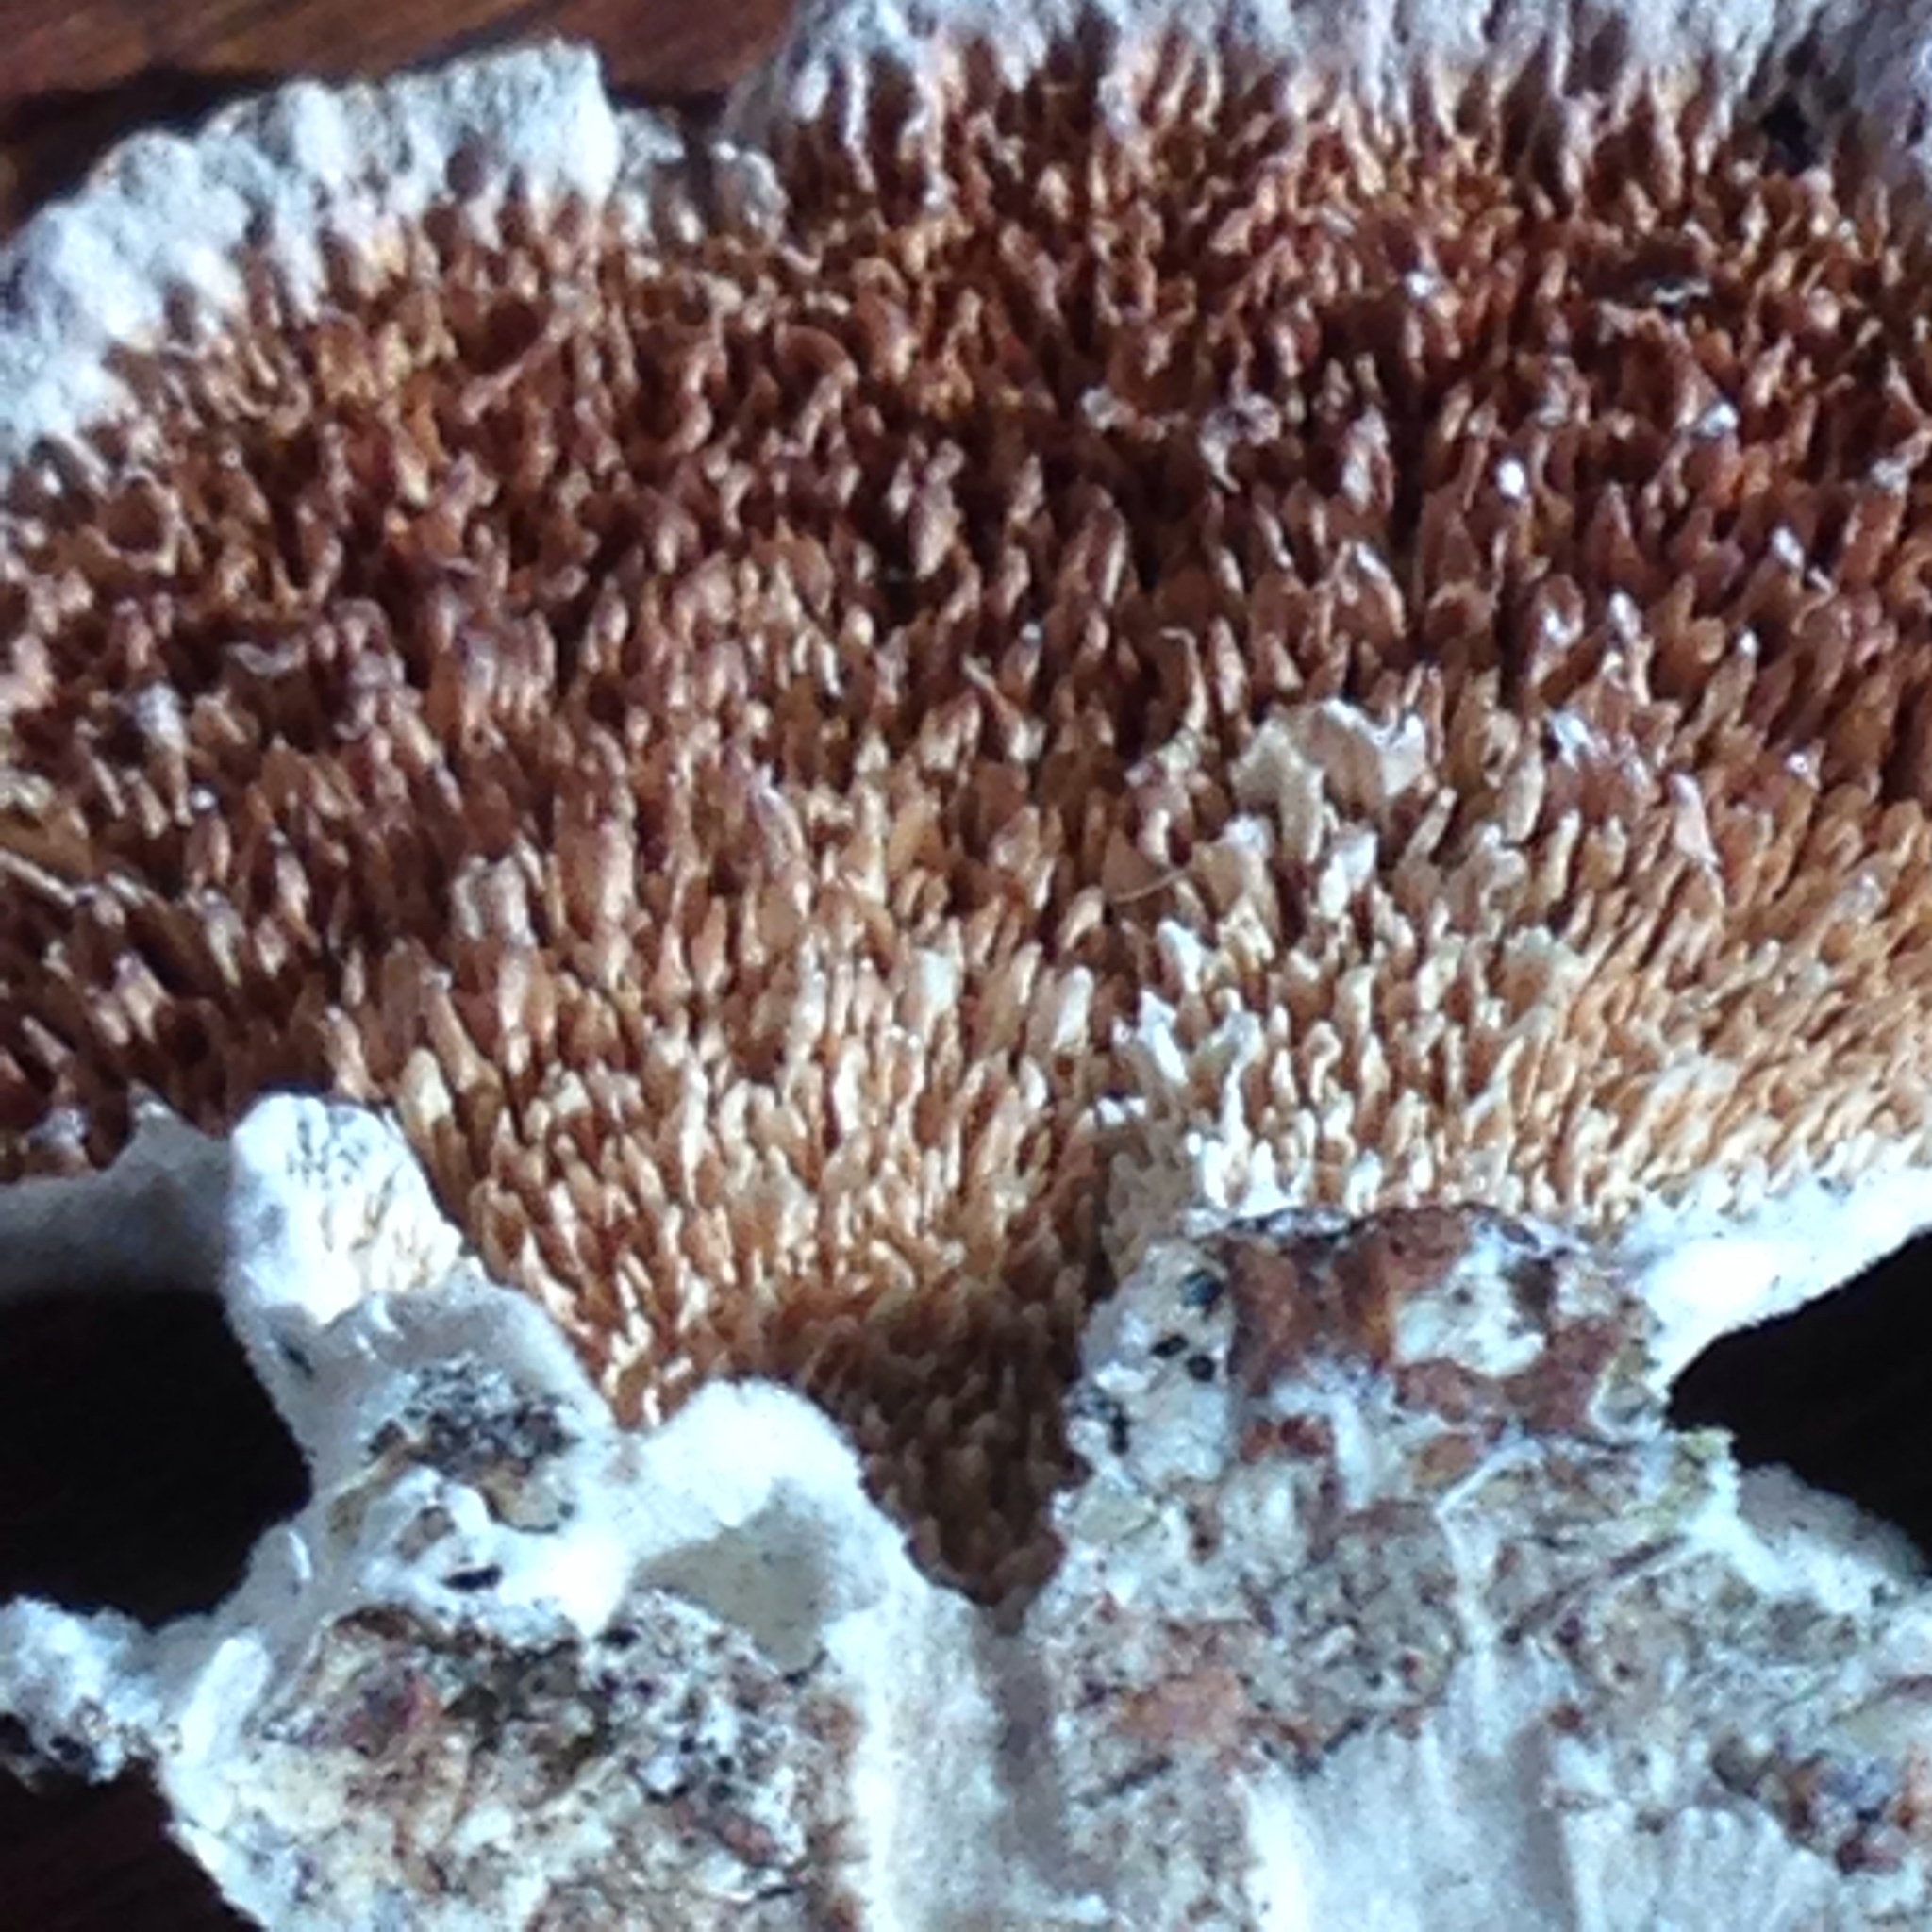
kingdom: Fungi
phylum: Basidiomycota
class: Agaricomycetes
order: Hymenochaetales
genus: Trichaptum
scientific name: Trichaptum biforme
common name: Violet-toothed polypore
